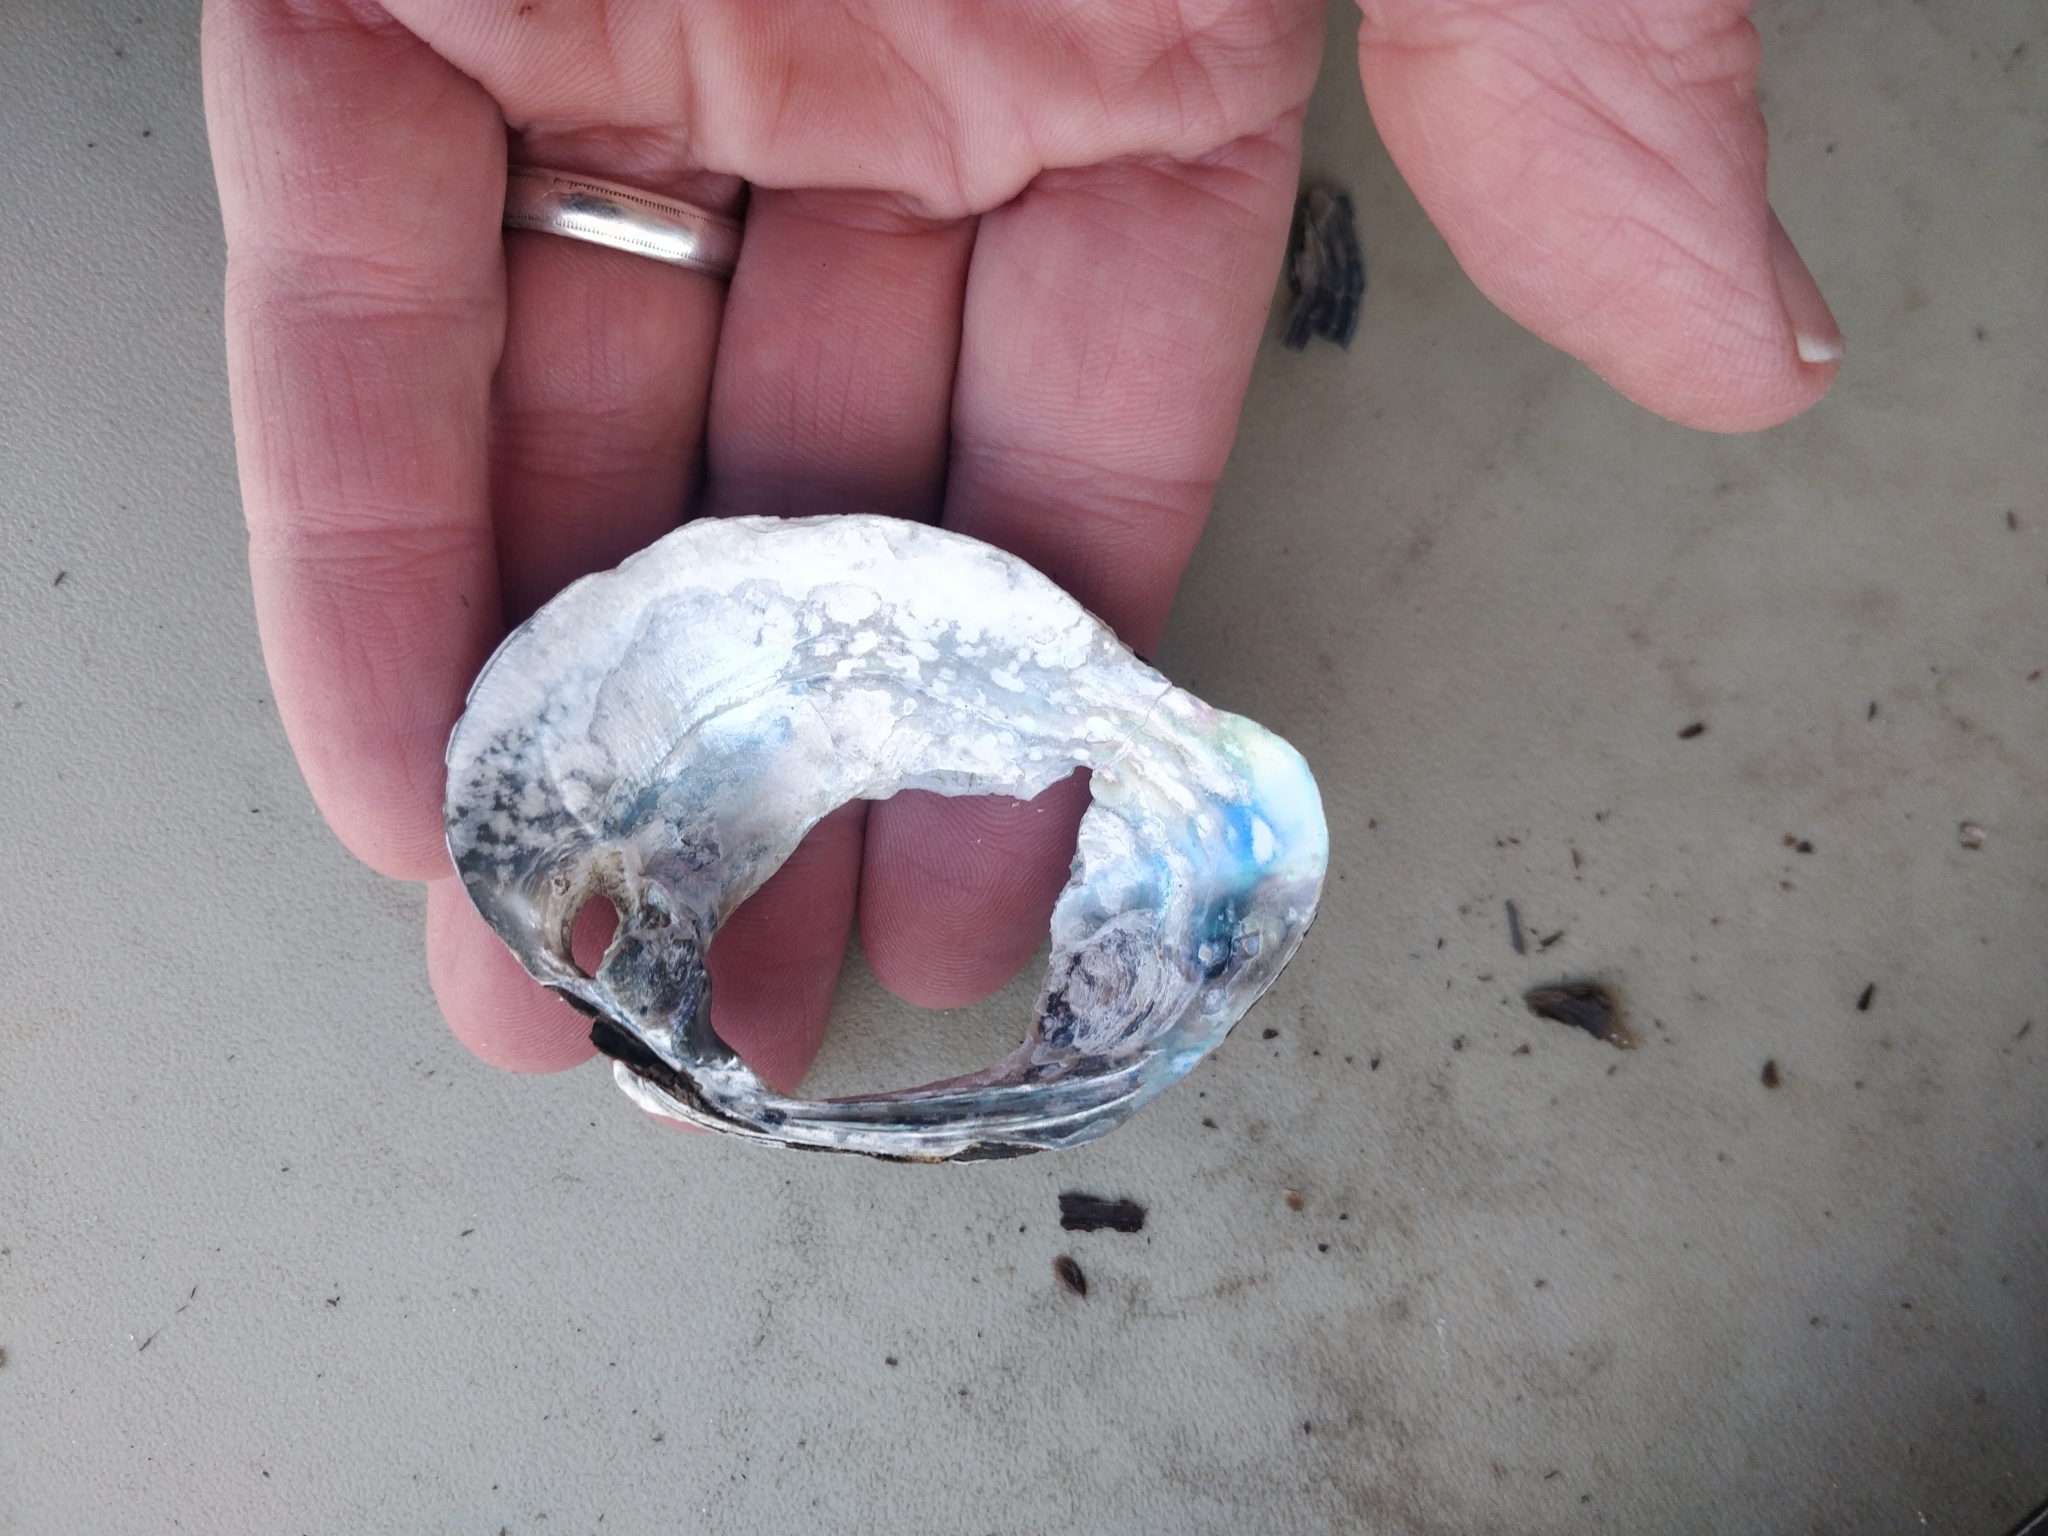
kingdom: Animalia
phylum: Mollusca
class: Bivalvia
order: Unionida
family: Unionidae
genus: Quadrula
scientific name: Quadrula quadrula
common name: Mapleleaf
